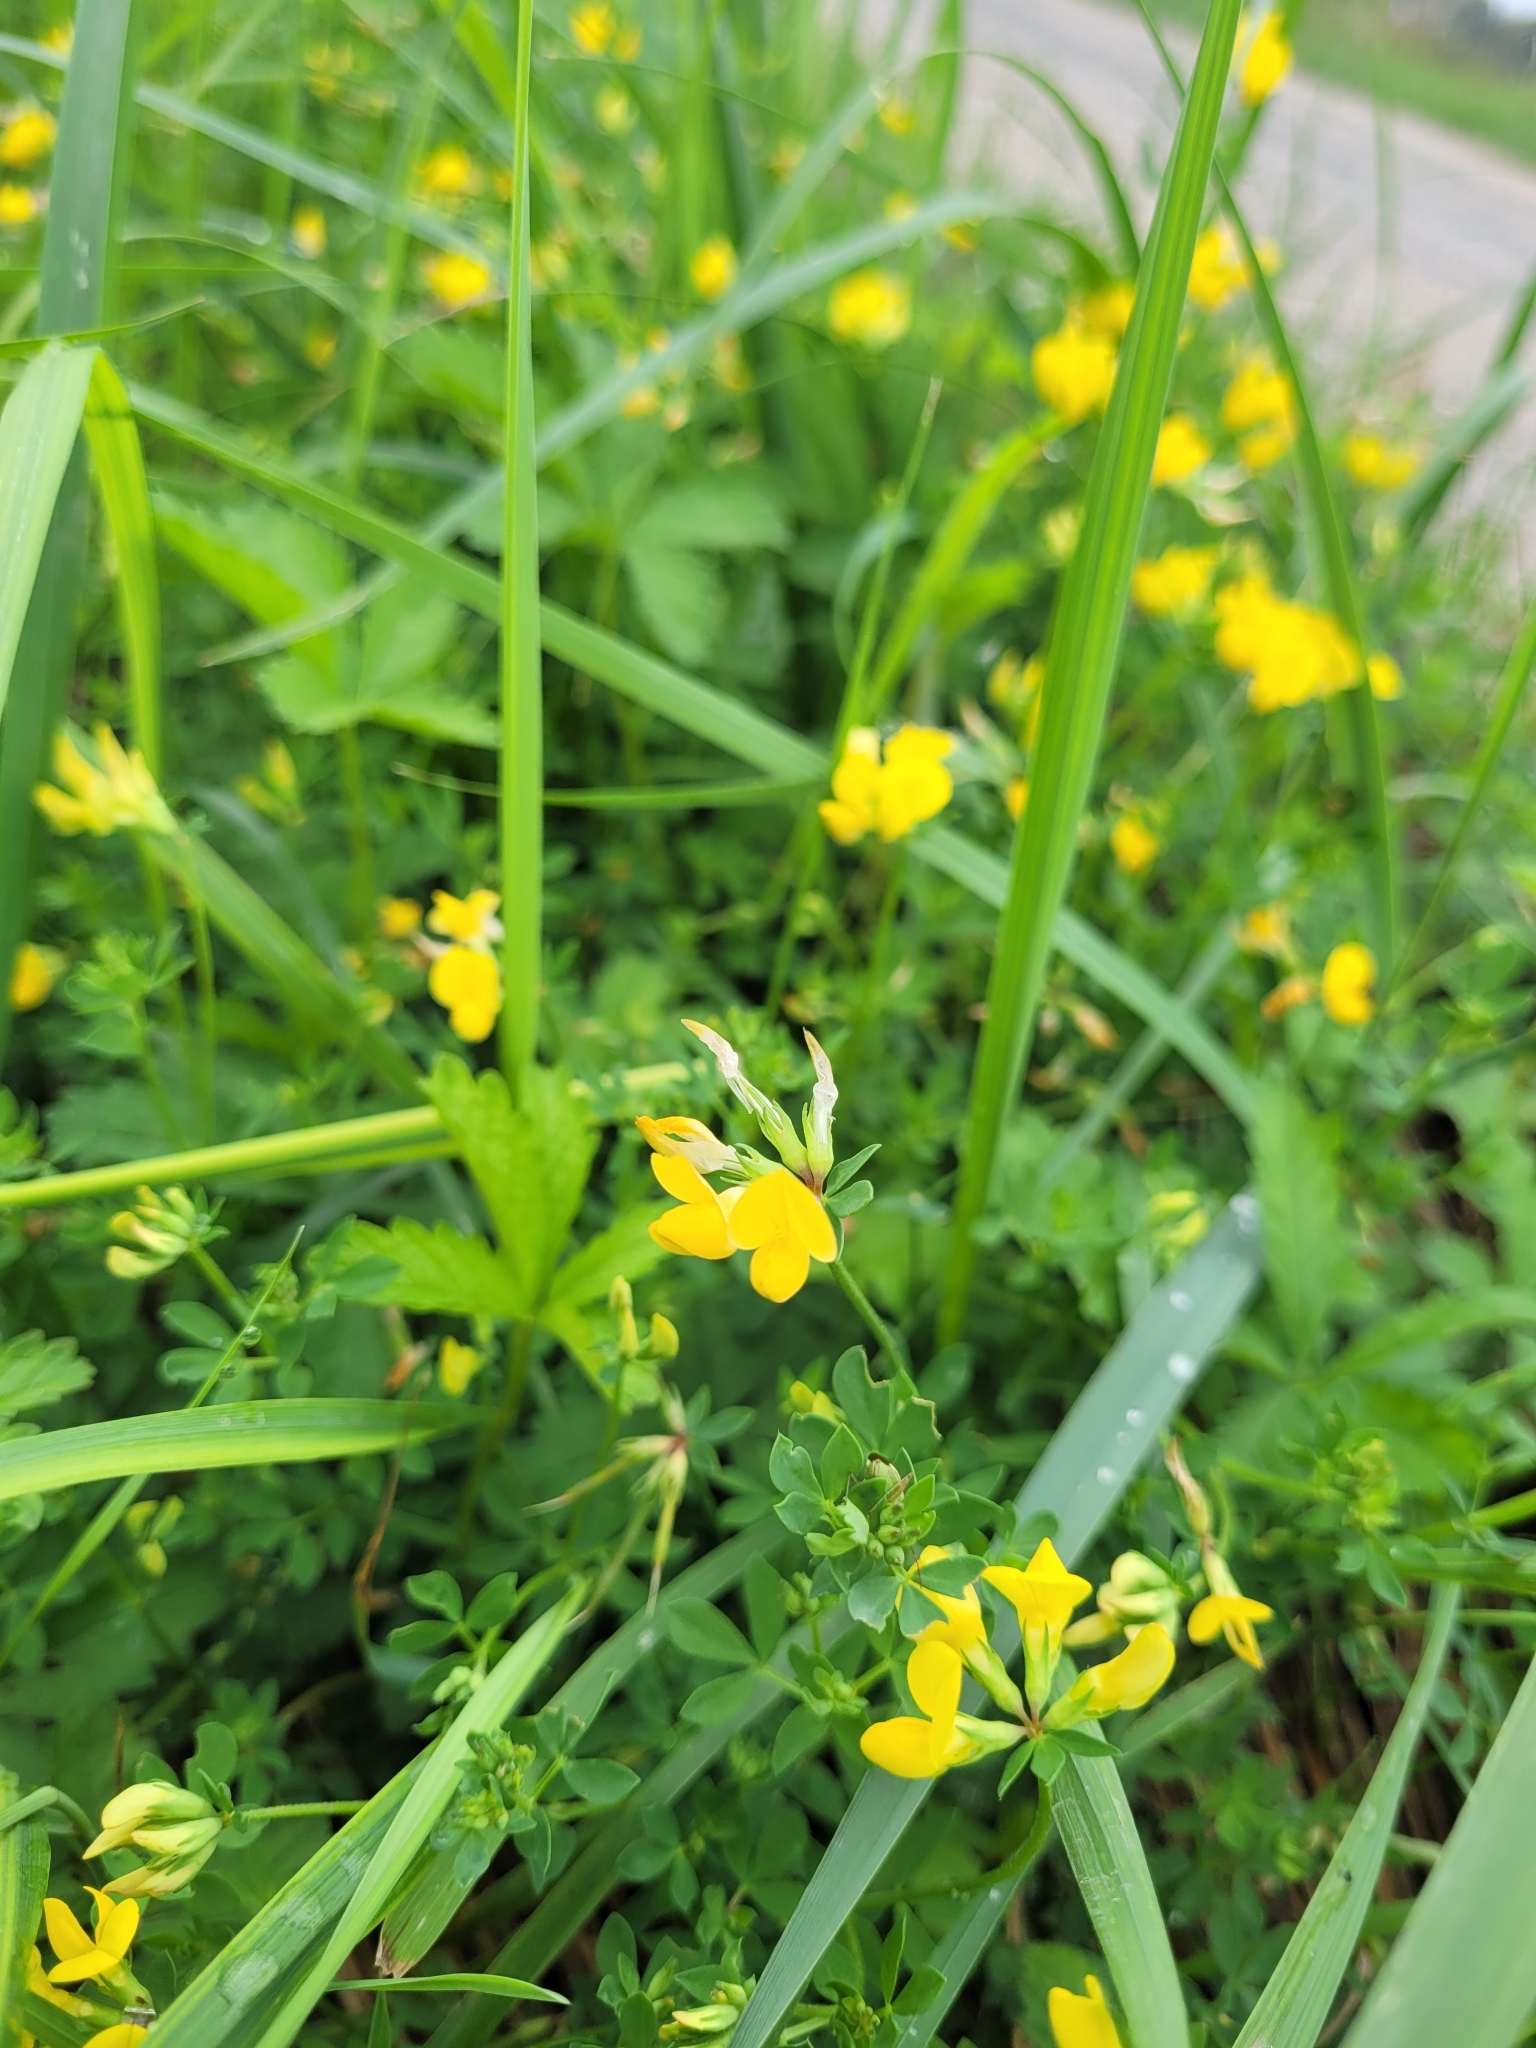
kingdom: Plantae
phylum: Tracheophyta
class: Magnoliopsida
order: Fabales
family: Fabaceae
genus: Lotus
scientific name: Lotus corniculatus
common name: Common bird's-foot-trefoil
